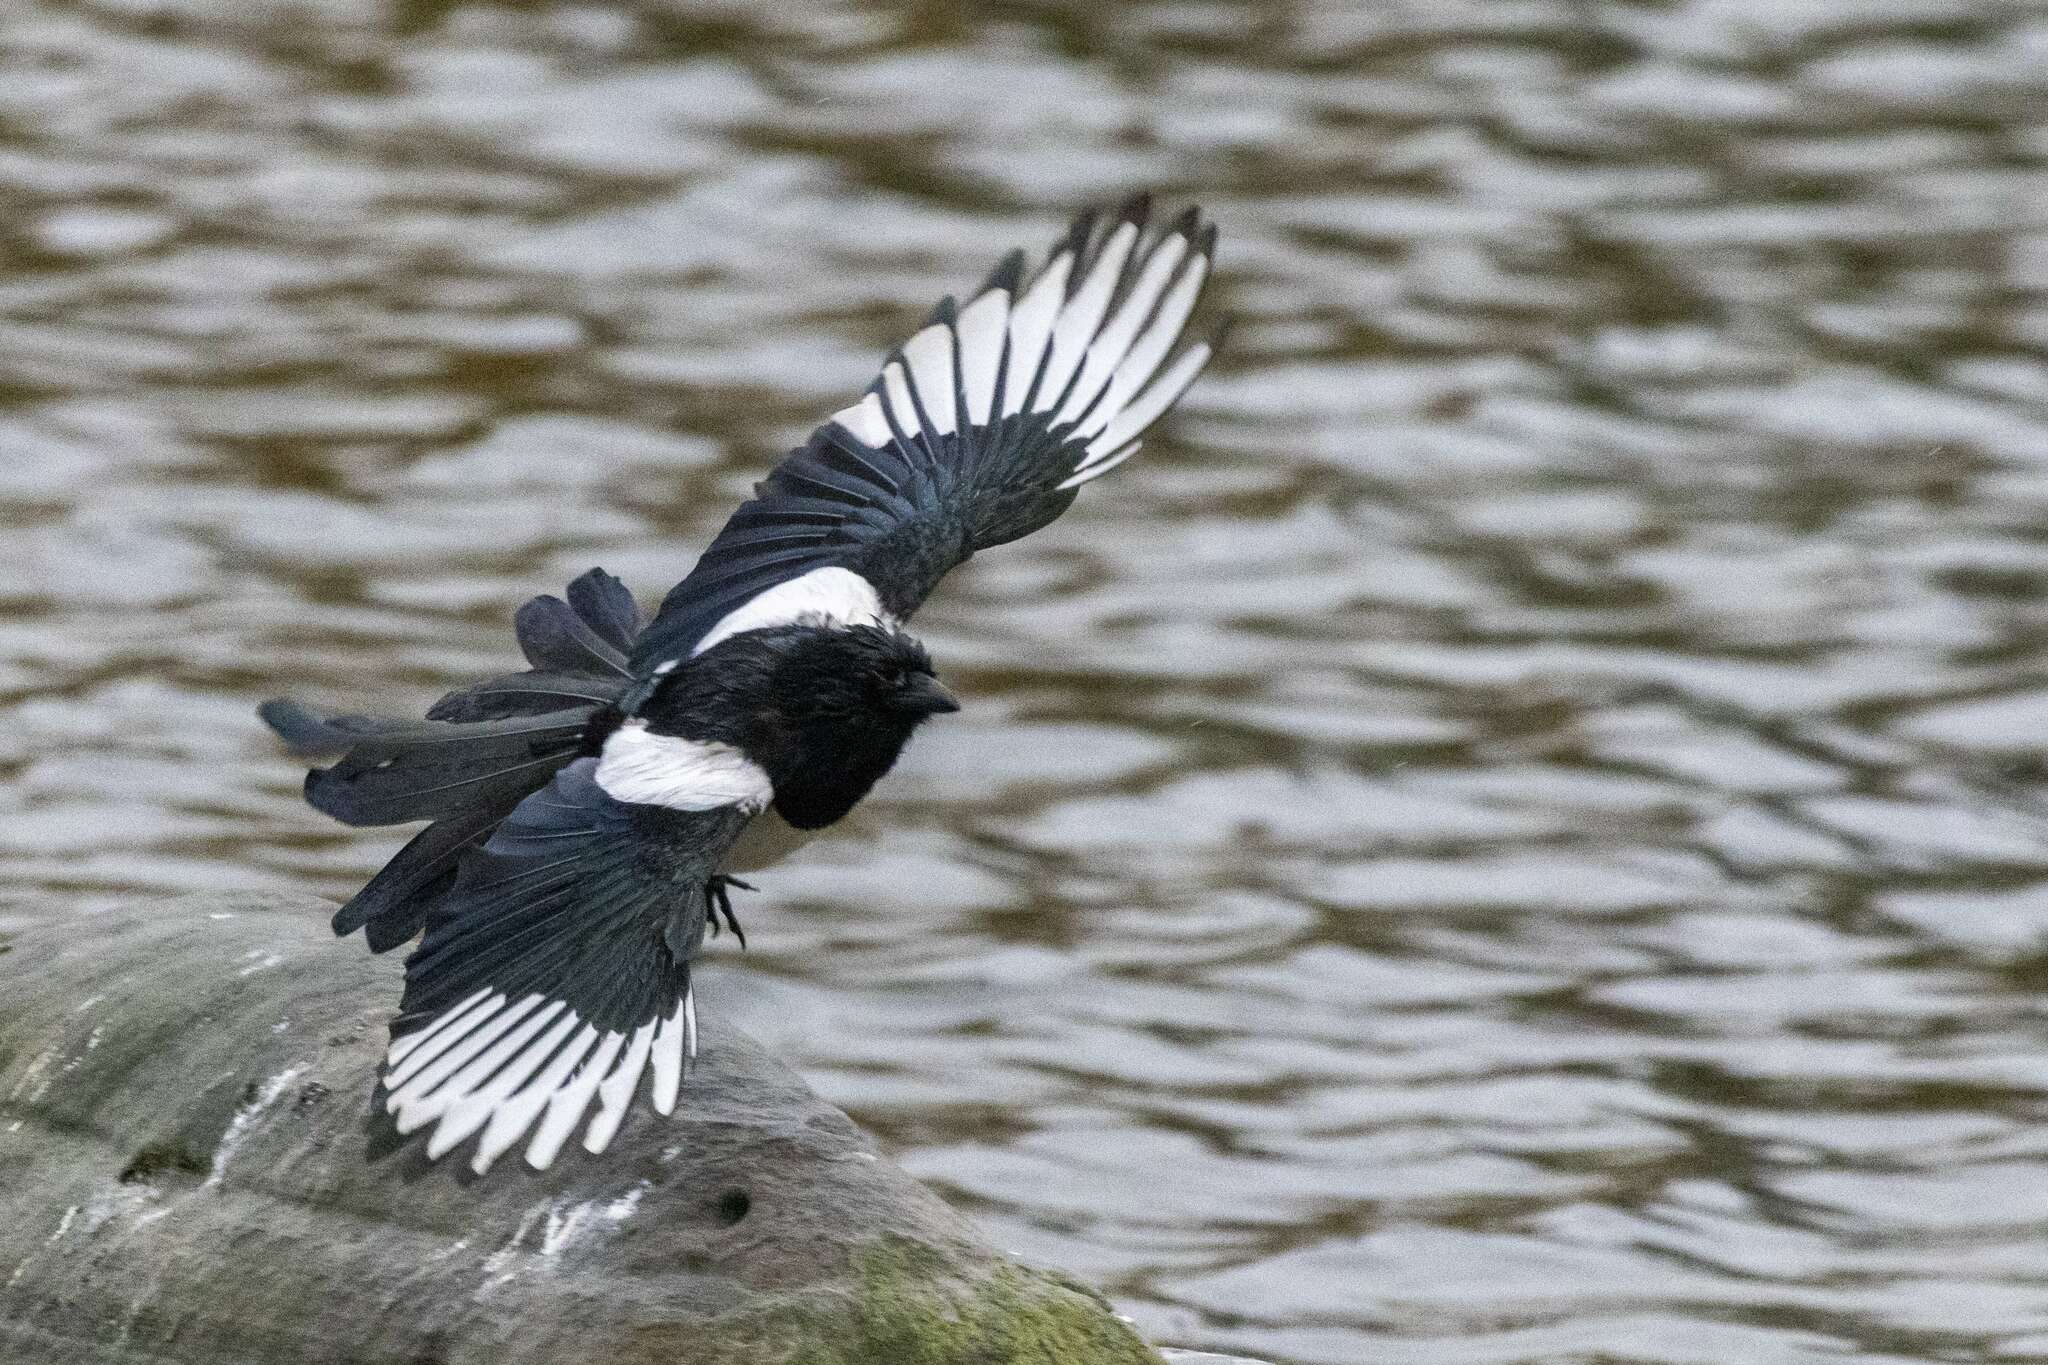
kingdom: Animalia
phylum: Chordata
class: Aves
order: Passeriformes
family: Corvidae
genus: Pica
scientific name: Pica pica
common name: Eurasian magpie
